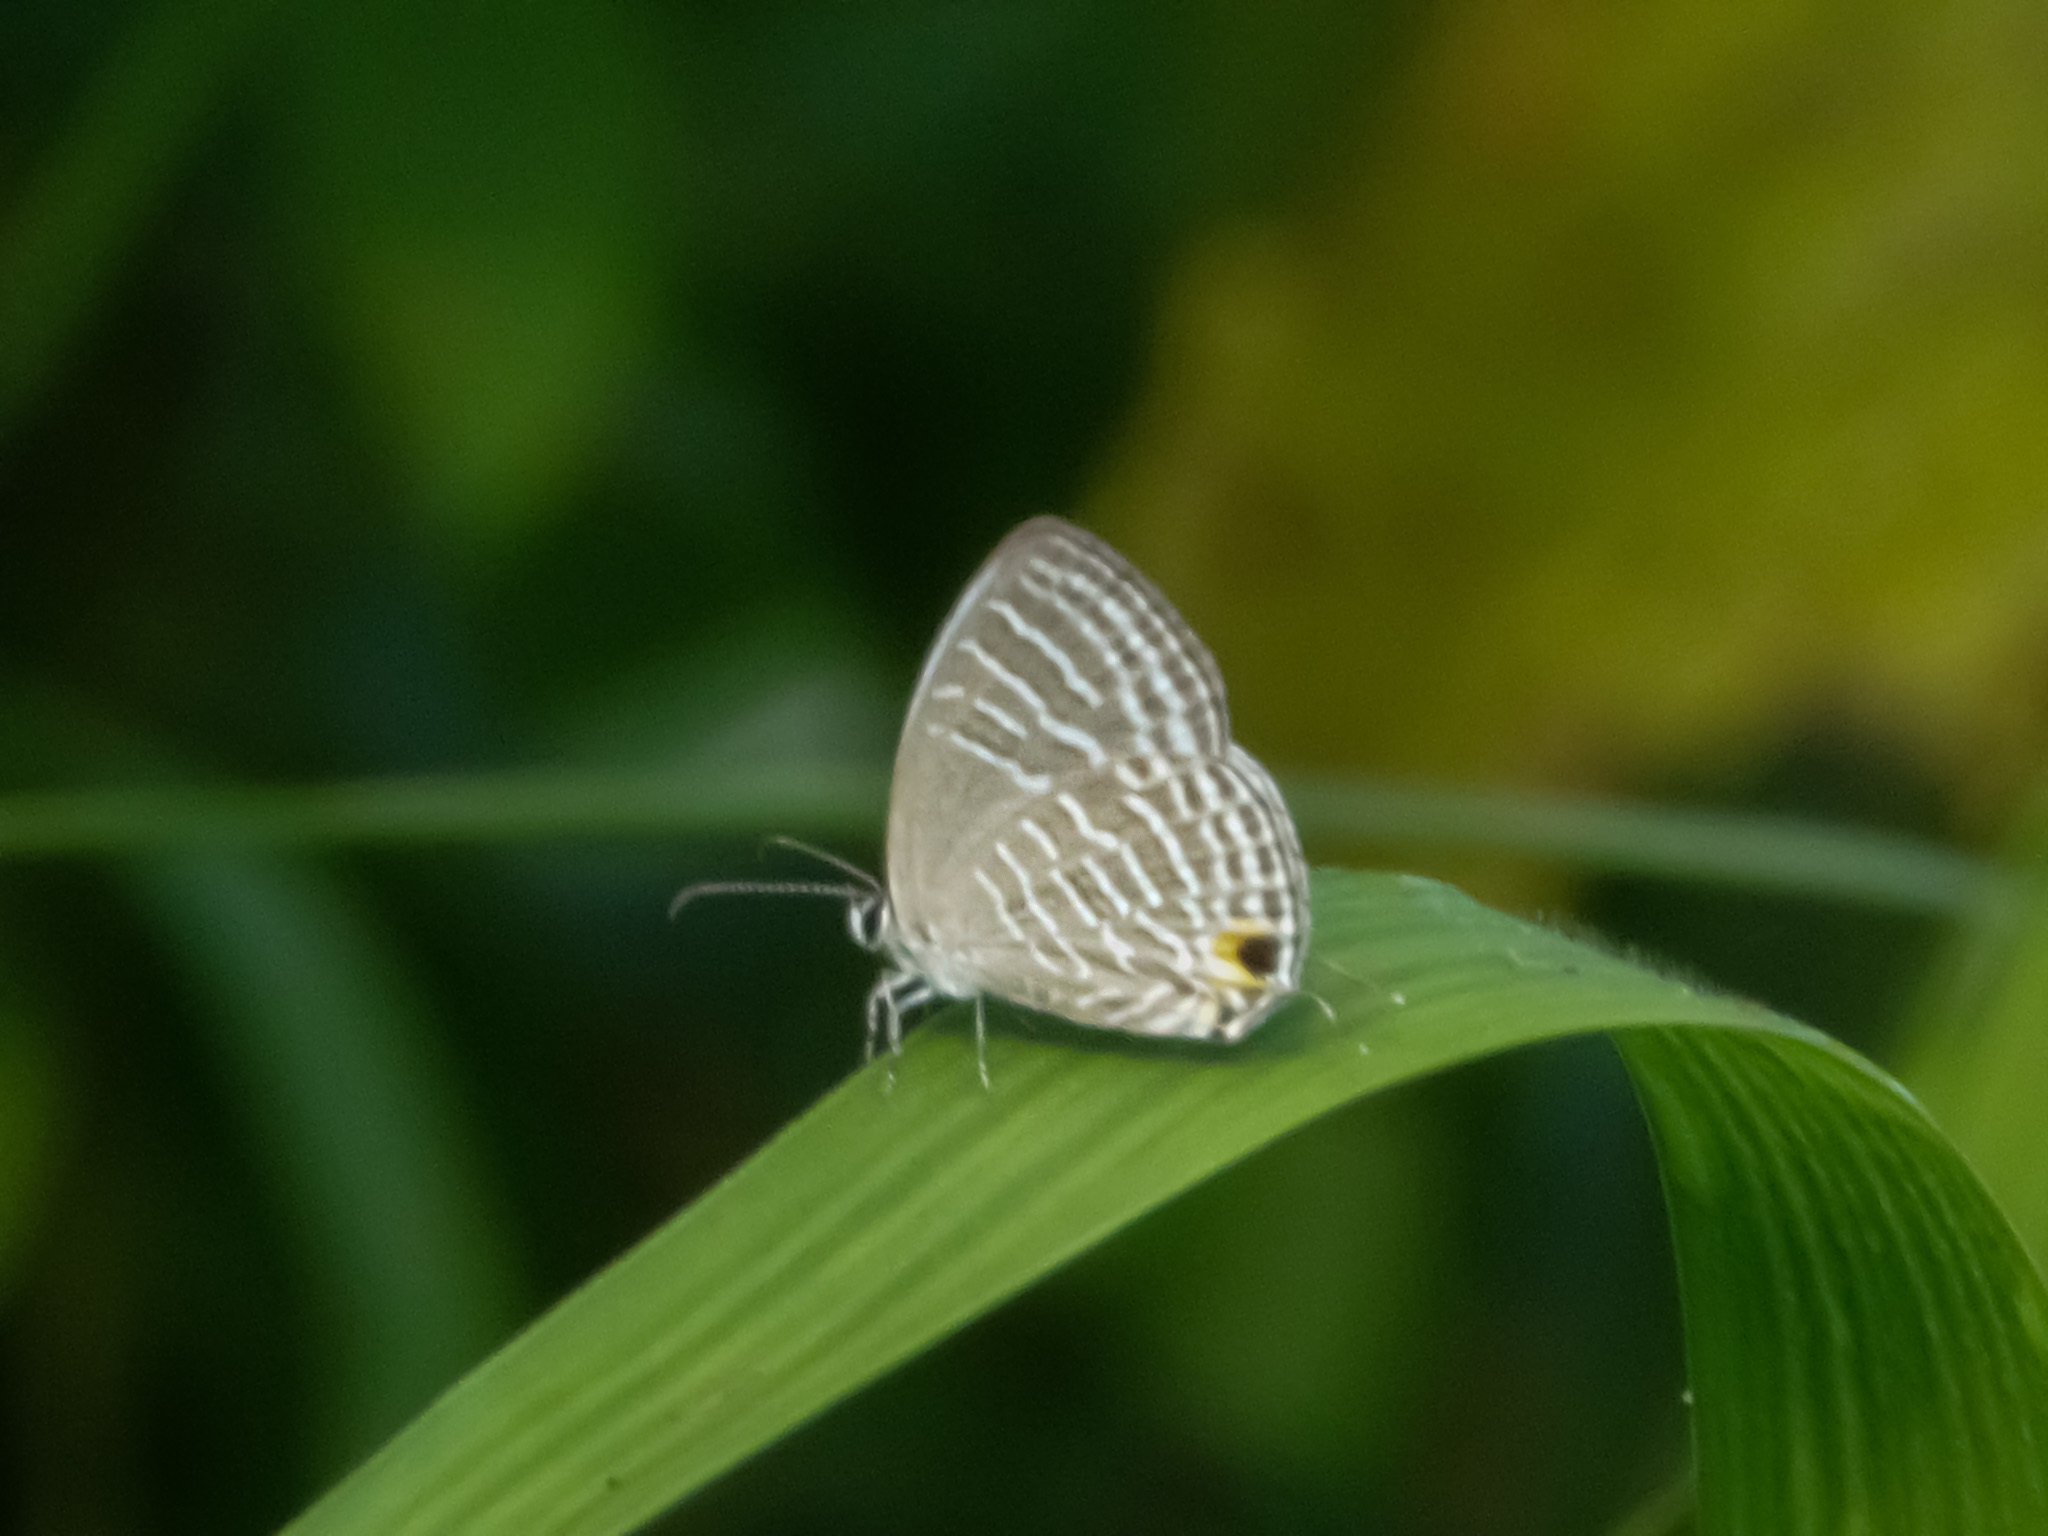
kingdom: Animalia
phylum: Arthropoda
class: Insecta
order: Lepidoptera
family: Lycaenidae
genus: Jamides
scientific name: Jamides celeno
